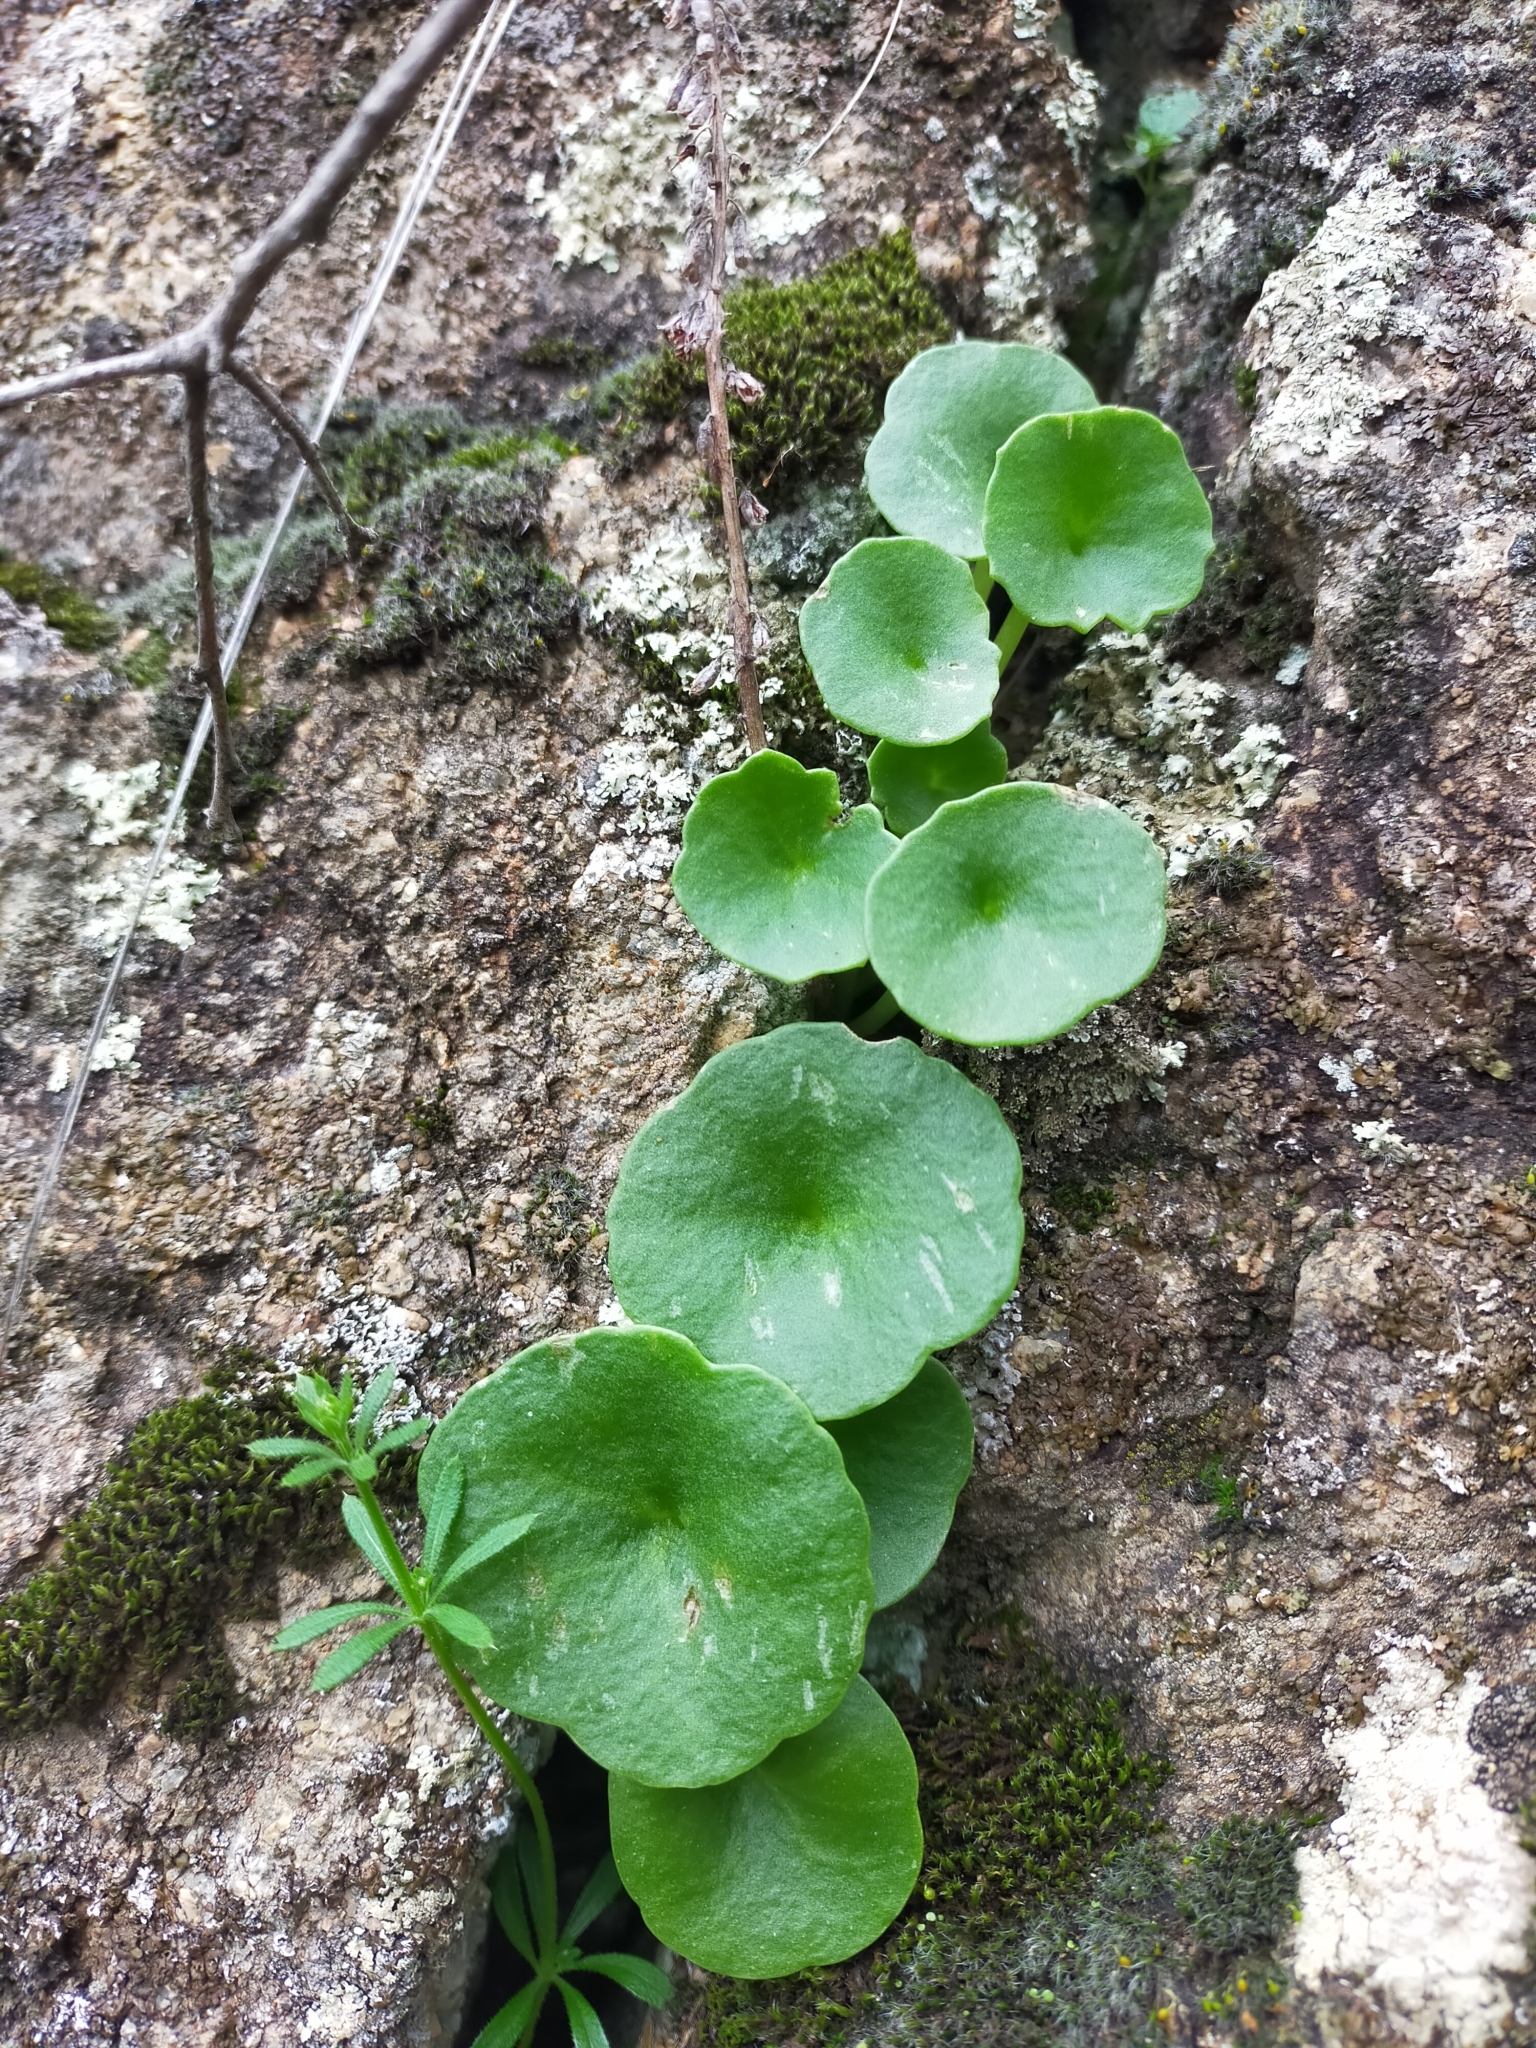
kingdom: Plantae
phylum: Tracheophyta
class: Magnoliopsida
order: Saxifragales
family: Crassulaceae
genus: Umbilicus
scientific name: Umbilicus rupestris
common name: Navelwort
